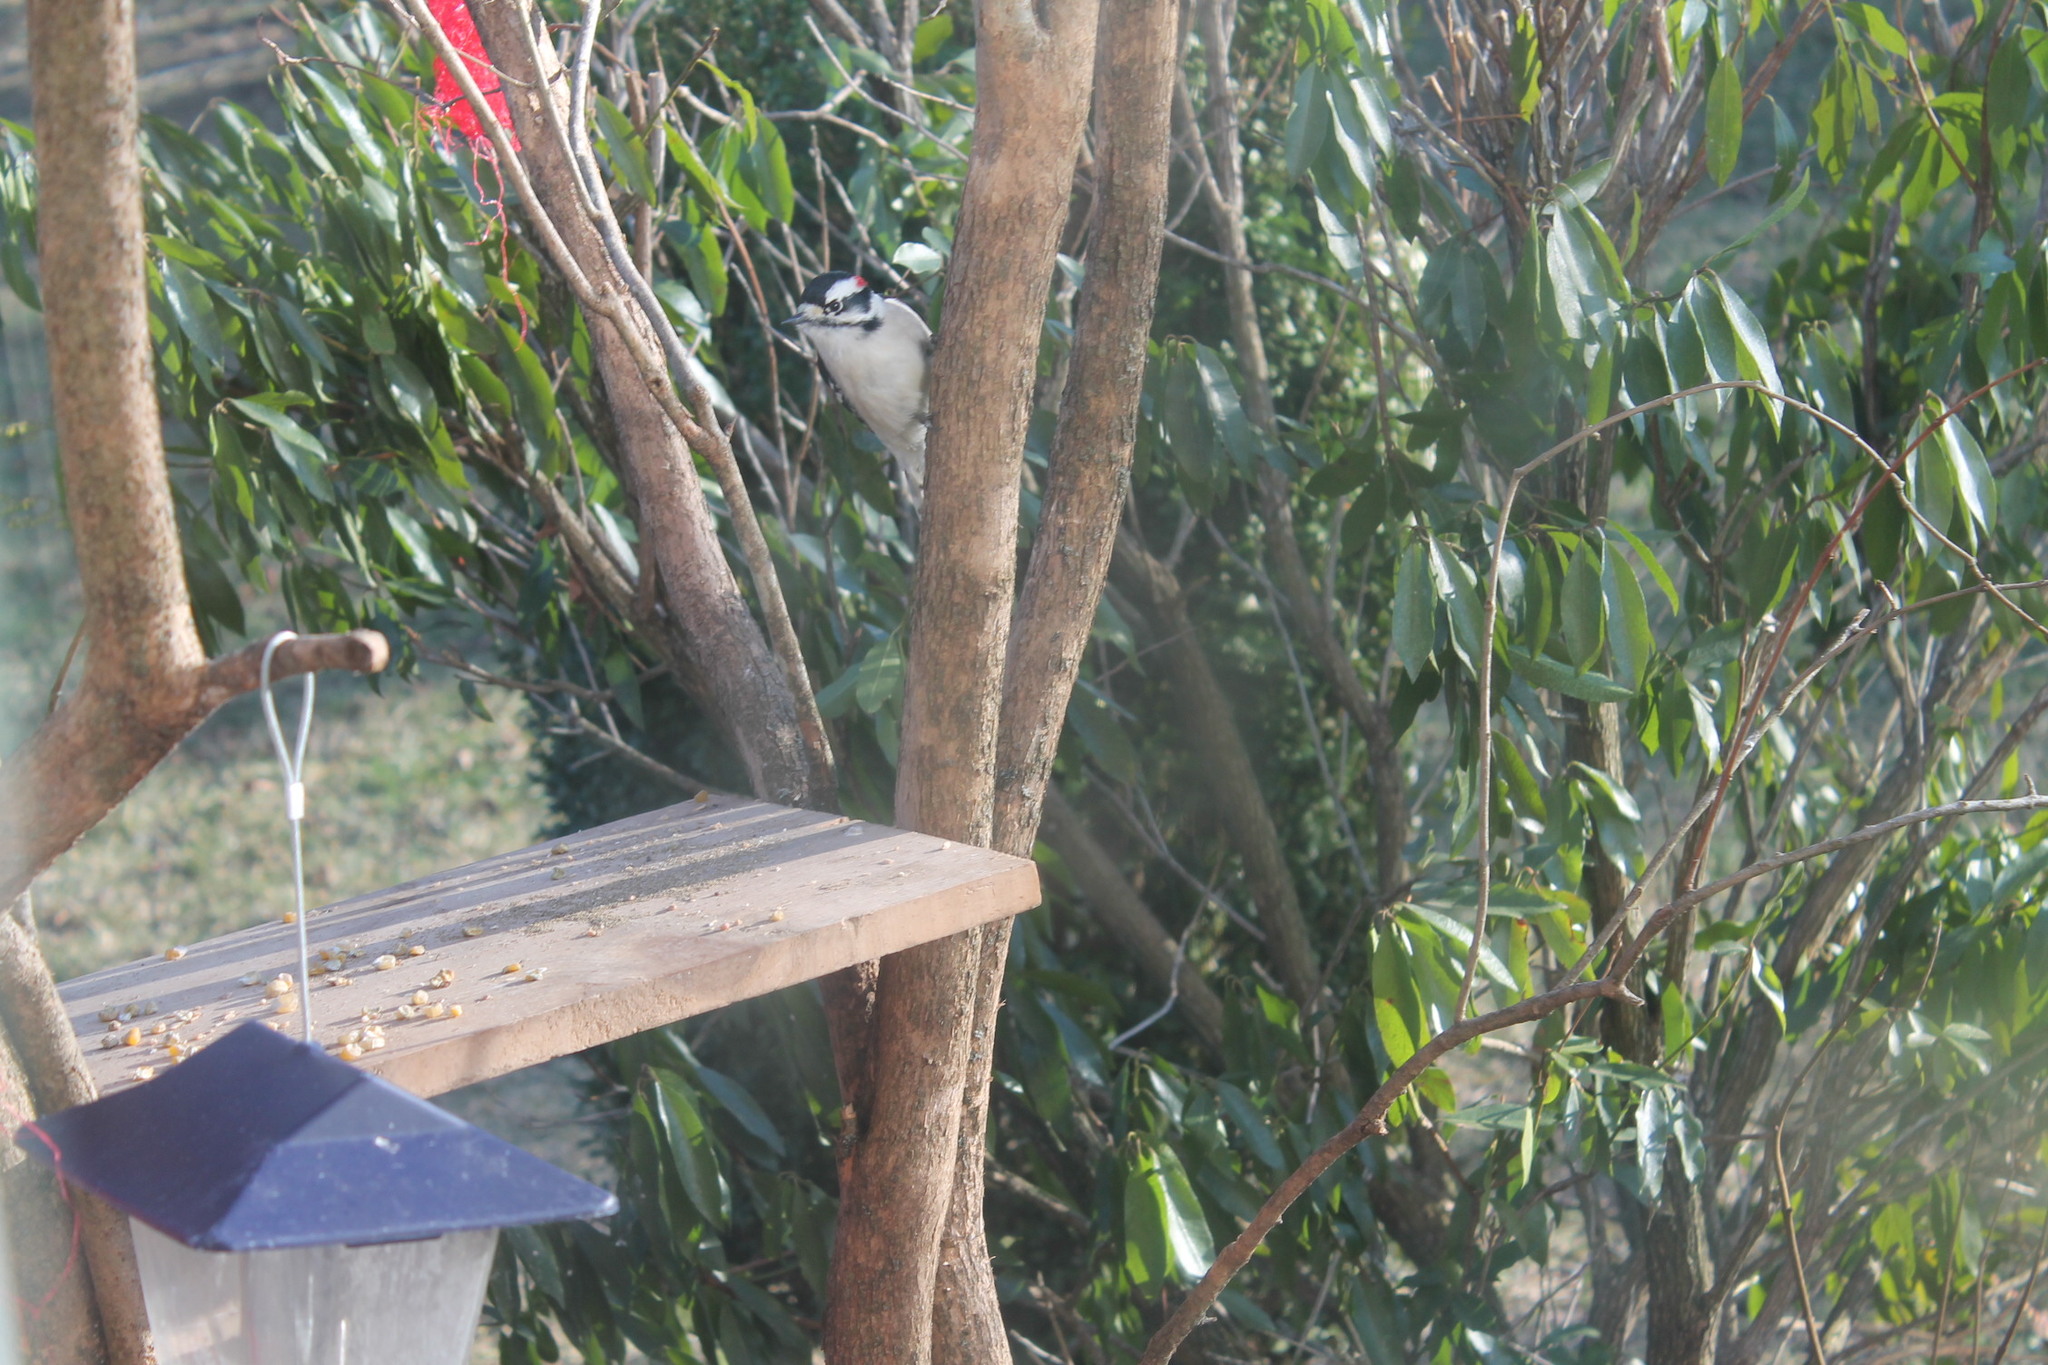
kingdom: Animalia
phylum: Chordata
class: Aves
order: Piciformes
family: Picidae
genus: Dryobates
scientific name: Dryobates pubescens
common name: Downy woodpecker
